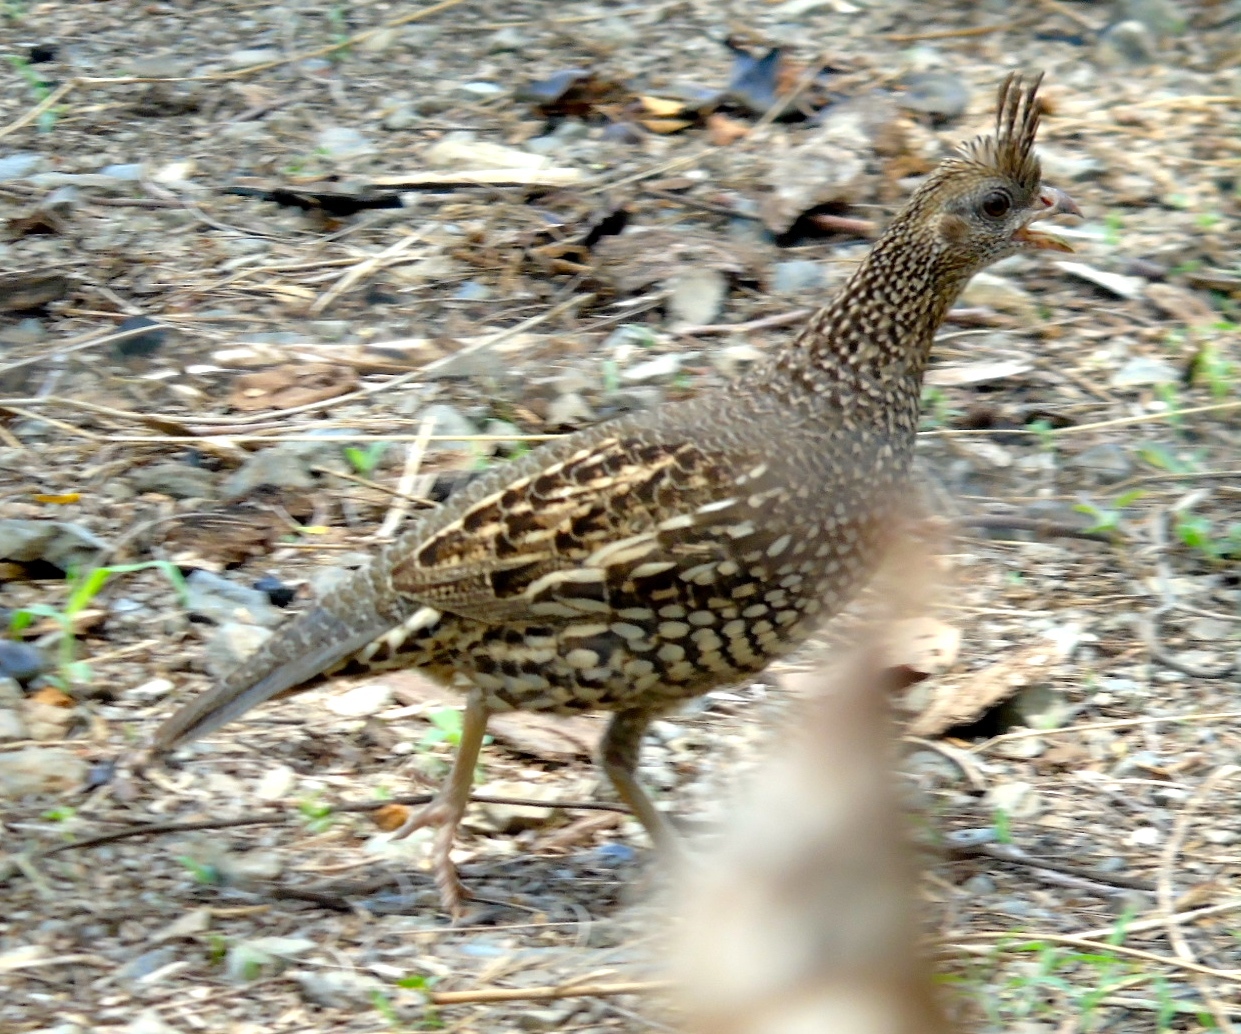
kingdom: Animalia
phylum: Chordata
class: Aves
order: Galliformes
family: Odontophoridae
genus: Callipepla
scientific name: Callipepla douglasii
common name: Elegant quail
